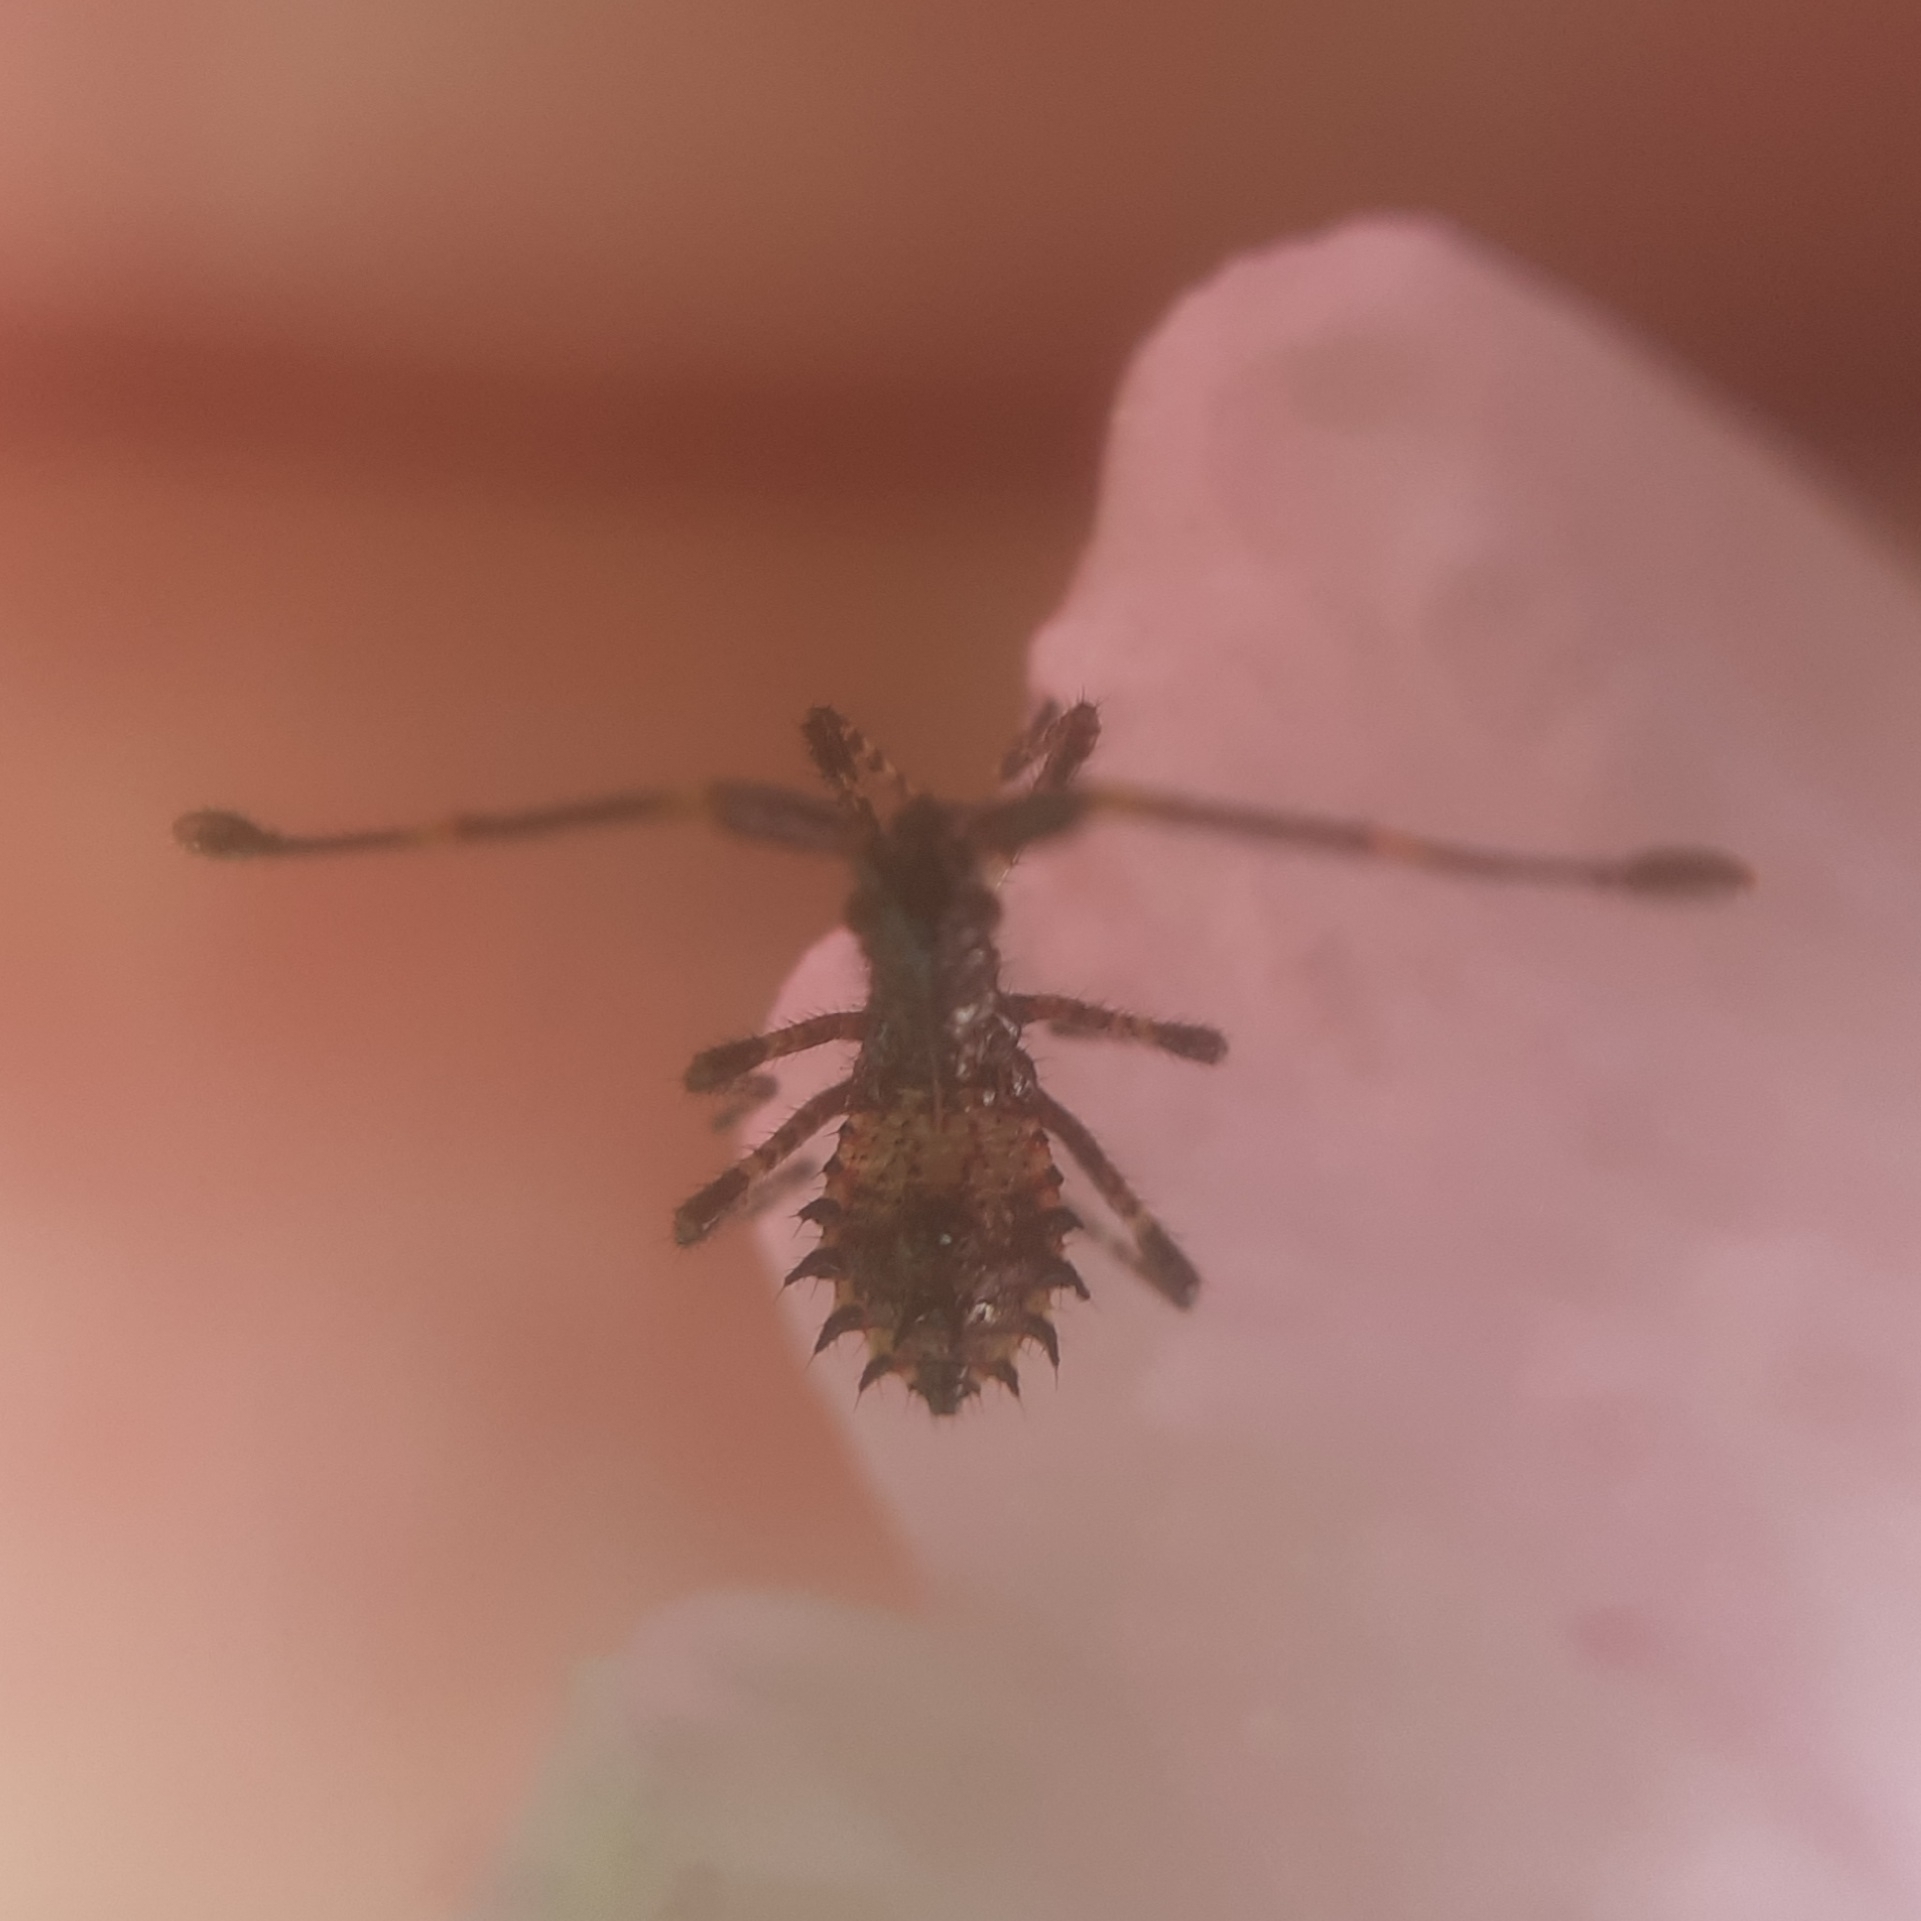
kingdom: Animalia
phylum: Arthropoda
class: Insecta
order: Hemiptera
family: Coreidae
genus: Coreus
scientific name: Coreus marginatus
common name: Dock bug
